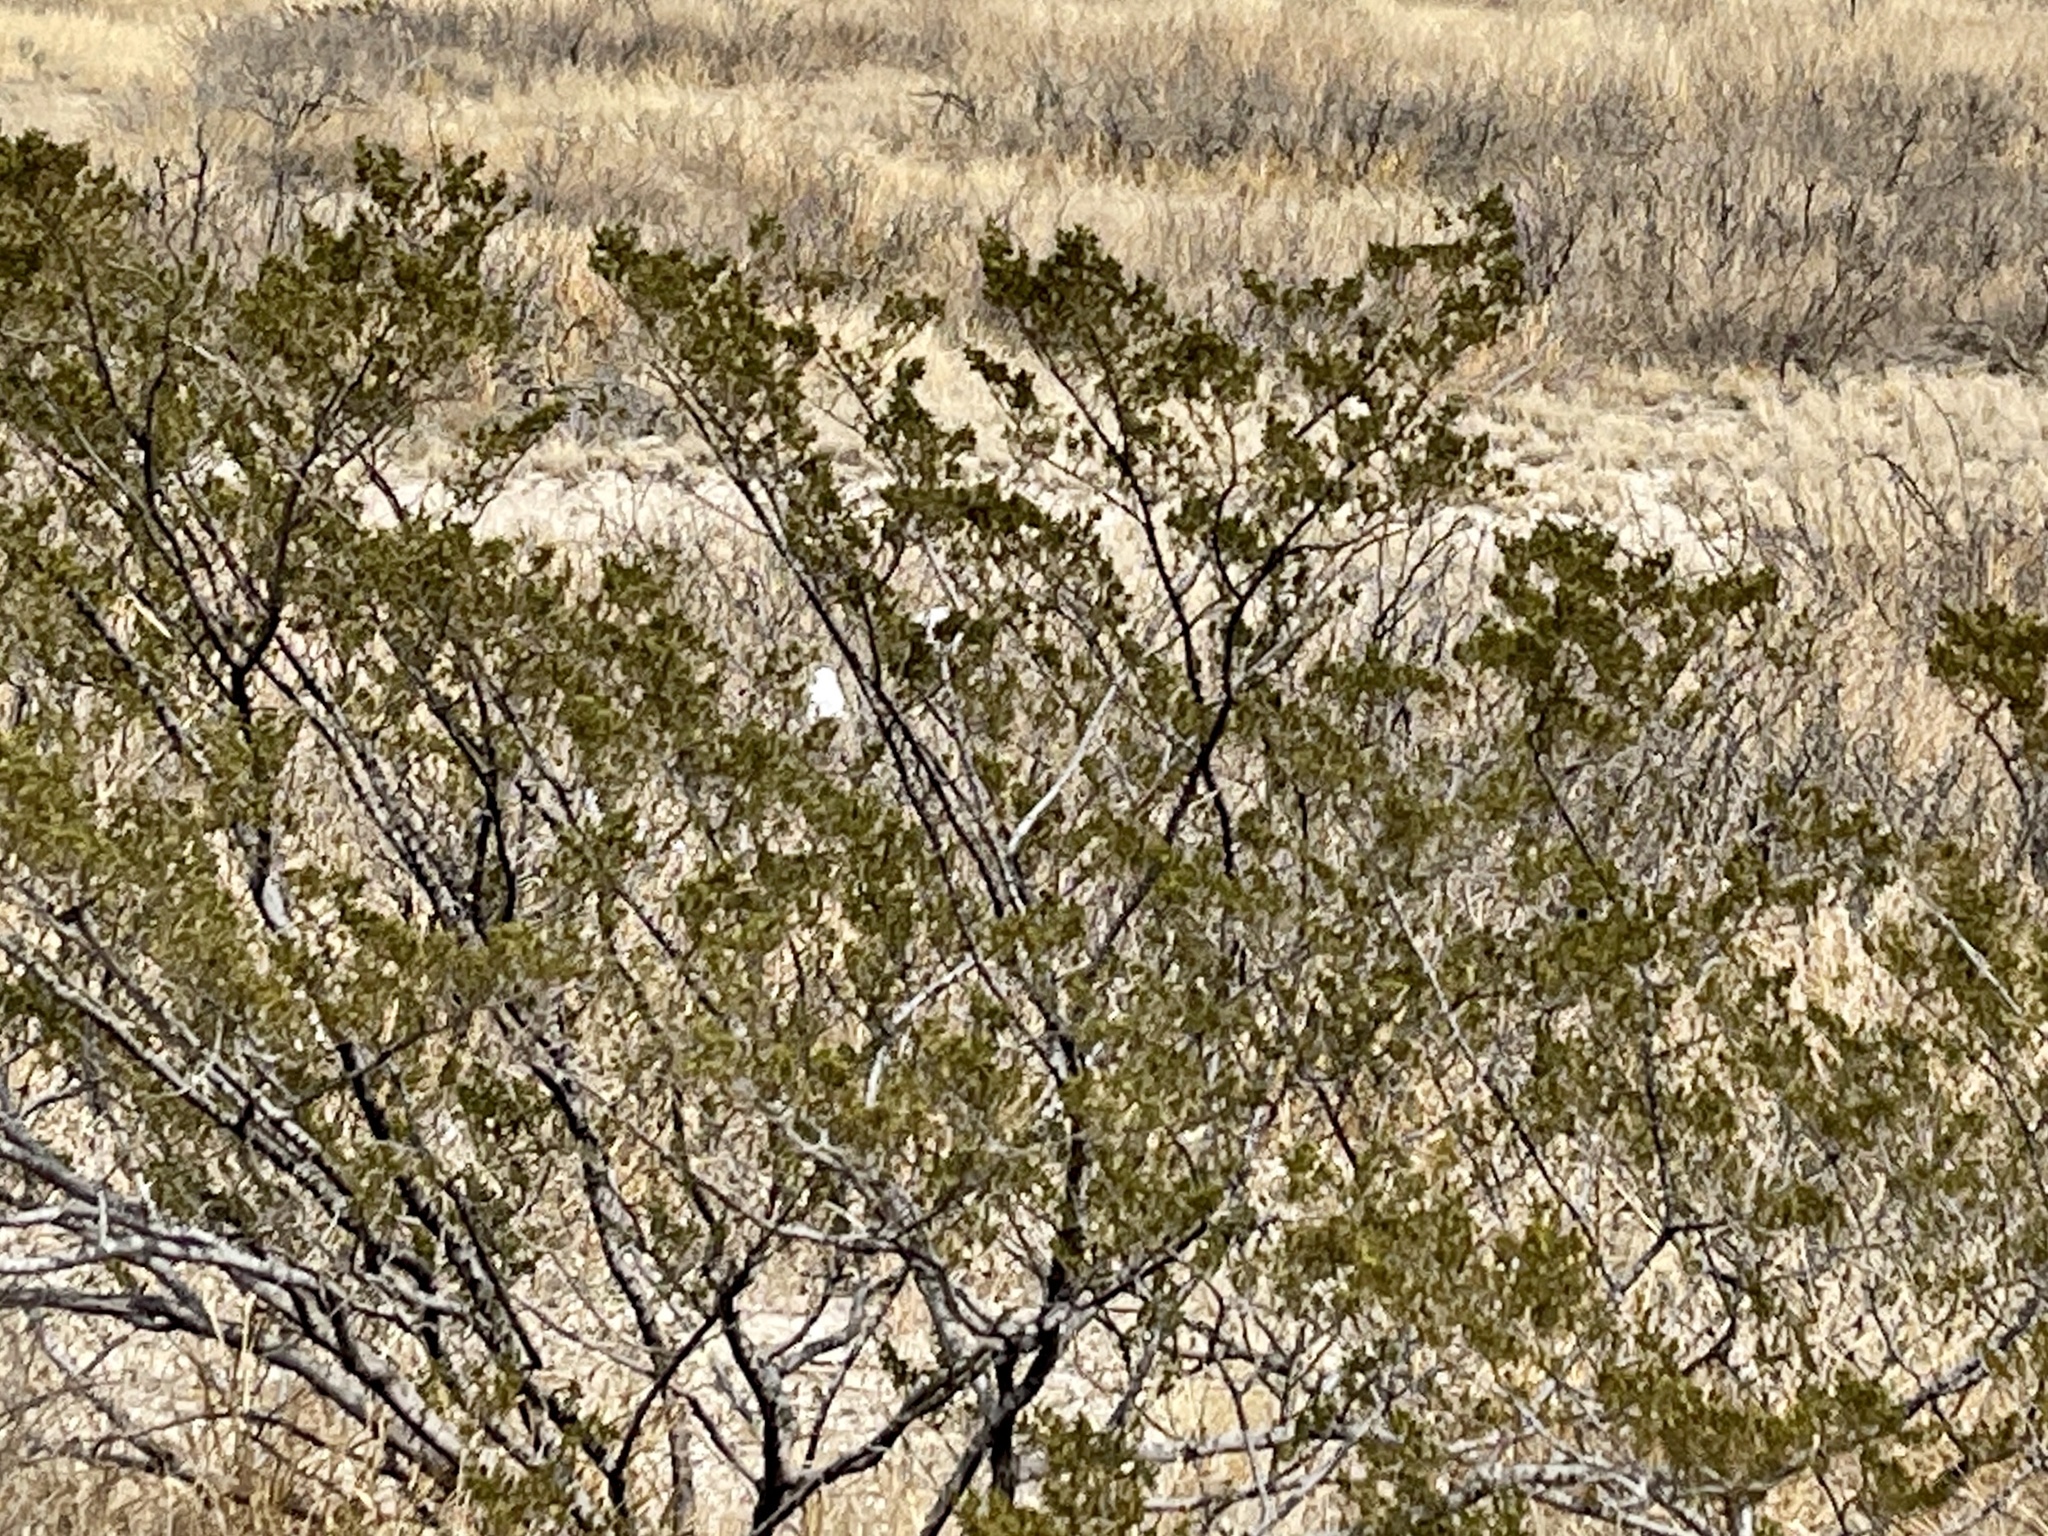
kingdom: Plantae
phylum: Tracheophyta
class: Magnoliopsida
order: Zygophyllales
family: Zygophyllaceae
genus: Larrea
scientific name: Larrea tridentata
